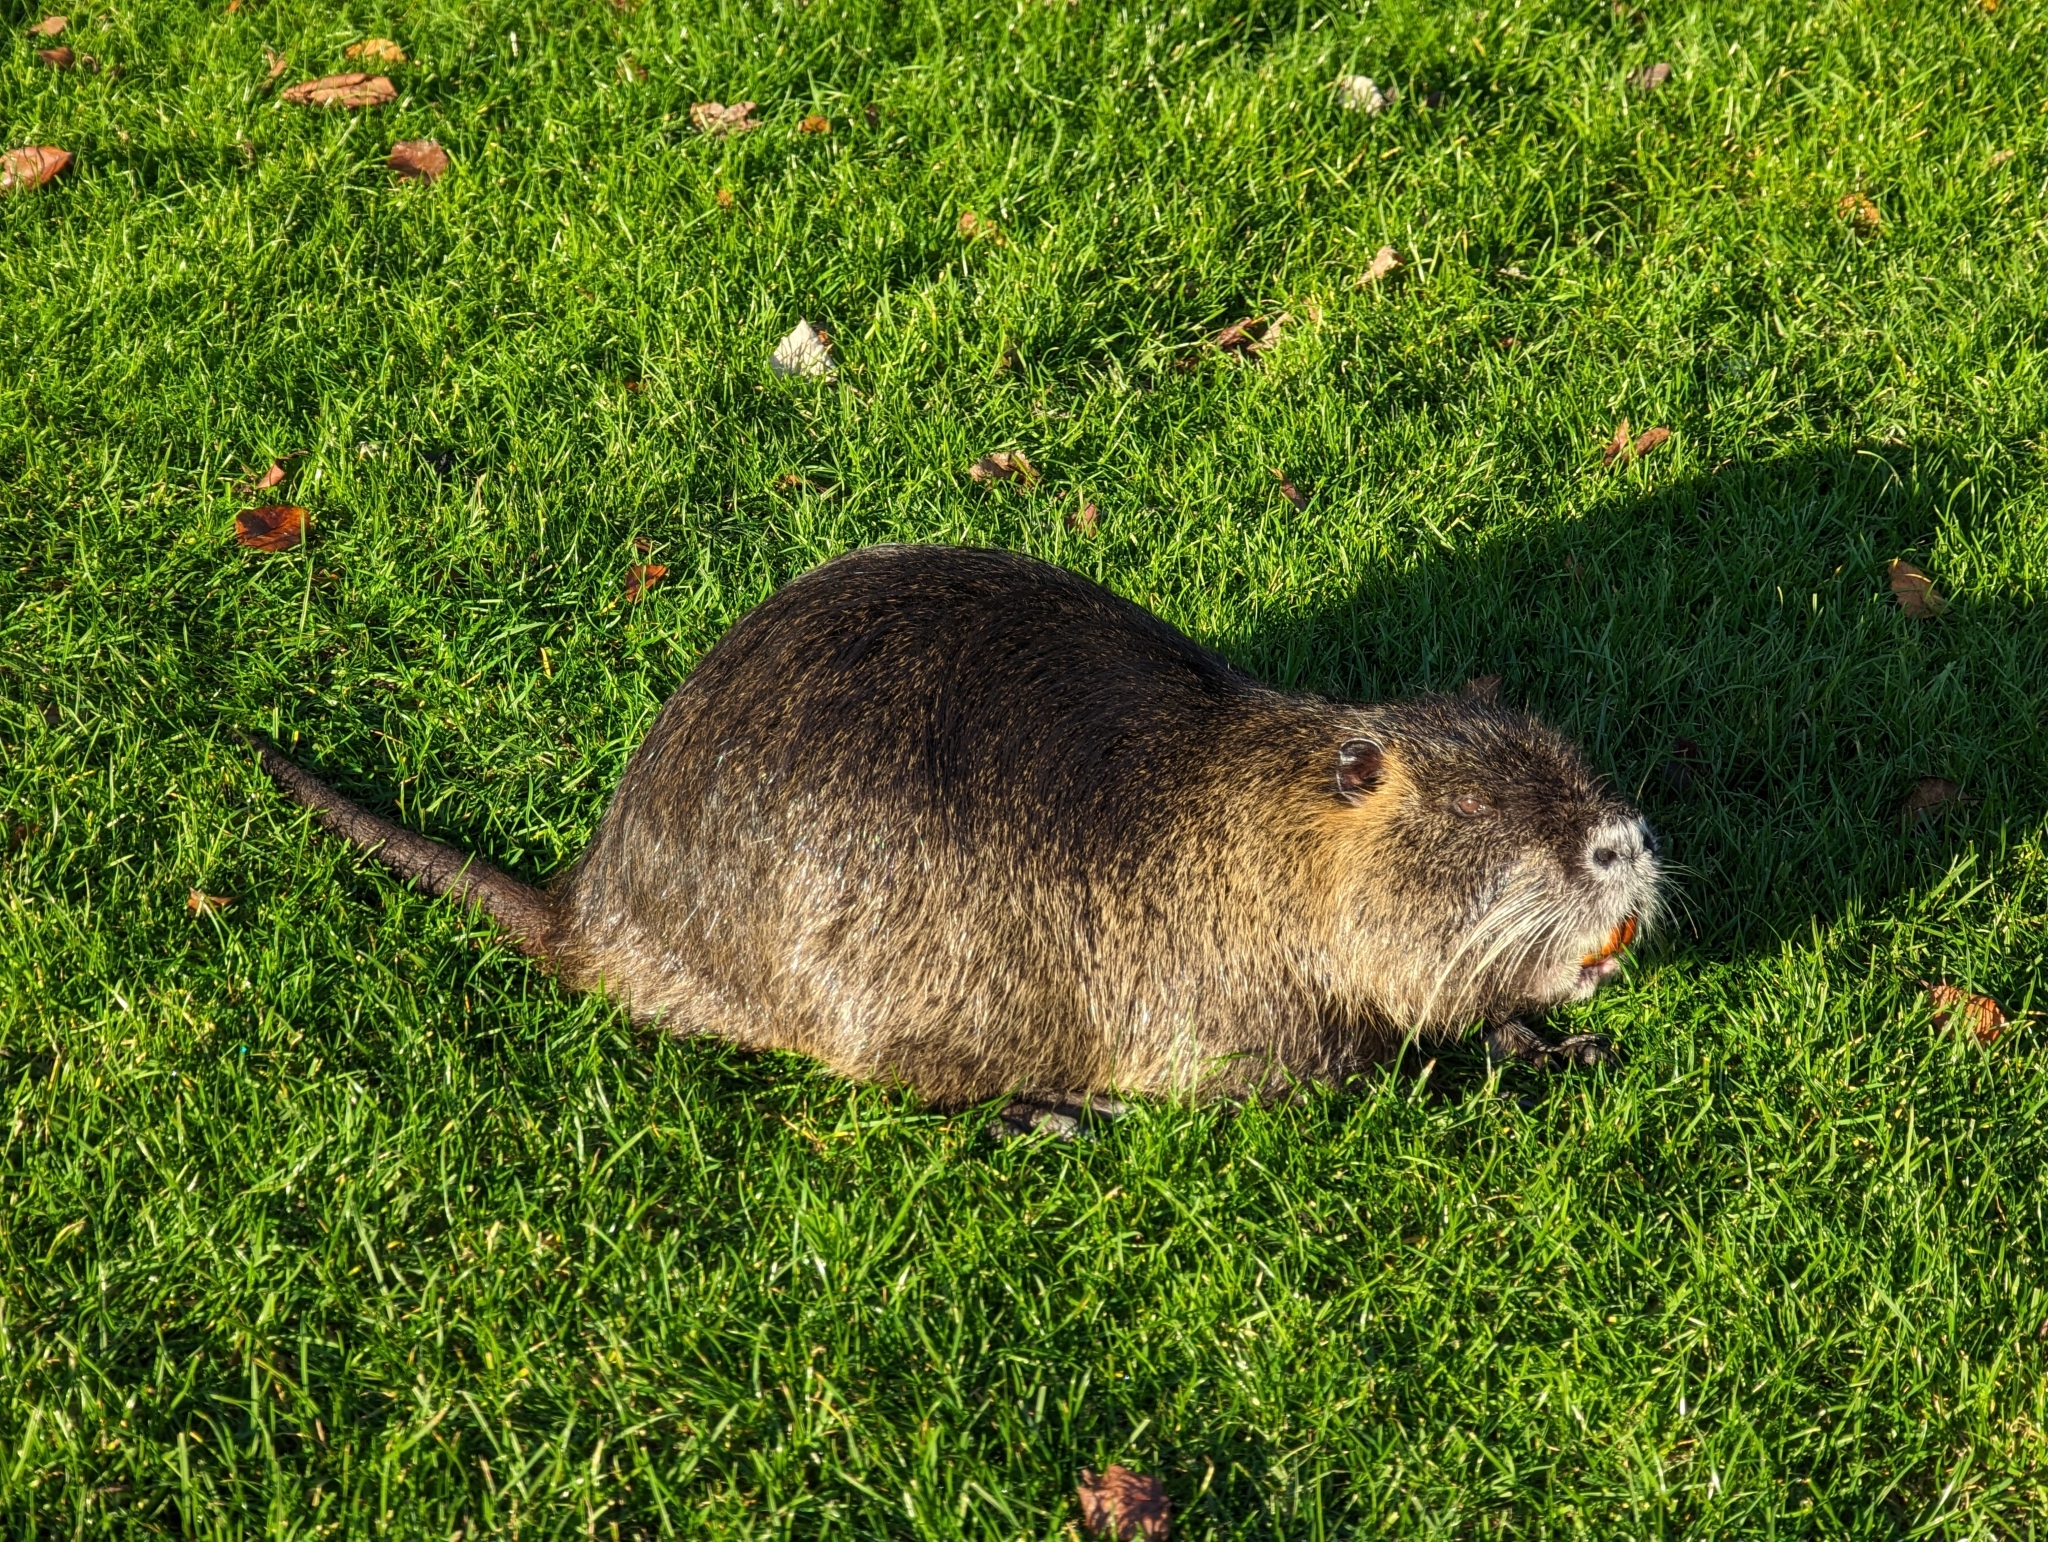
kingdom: Animalia
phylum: Chordata
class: Mammalia
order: Rodentia
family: Myocastoridae
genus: Myocastor
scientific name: Myocastor coypus
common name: Coypu
